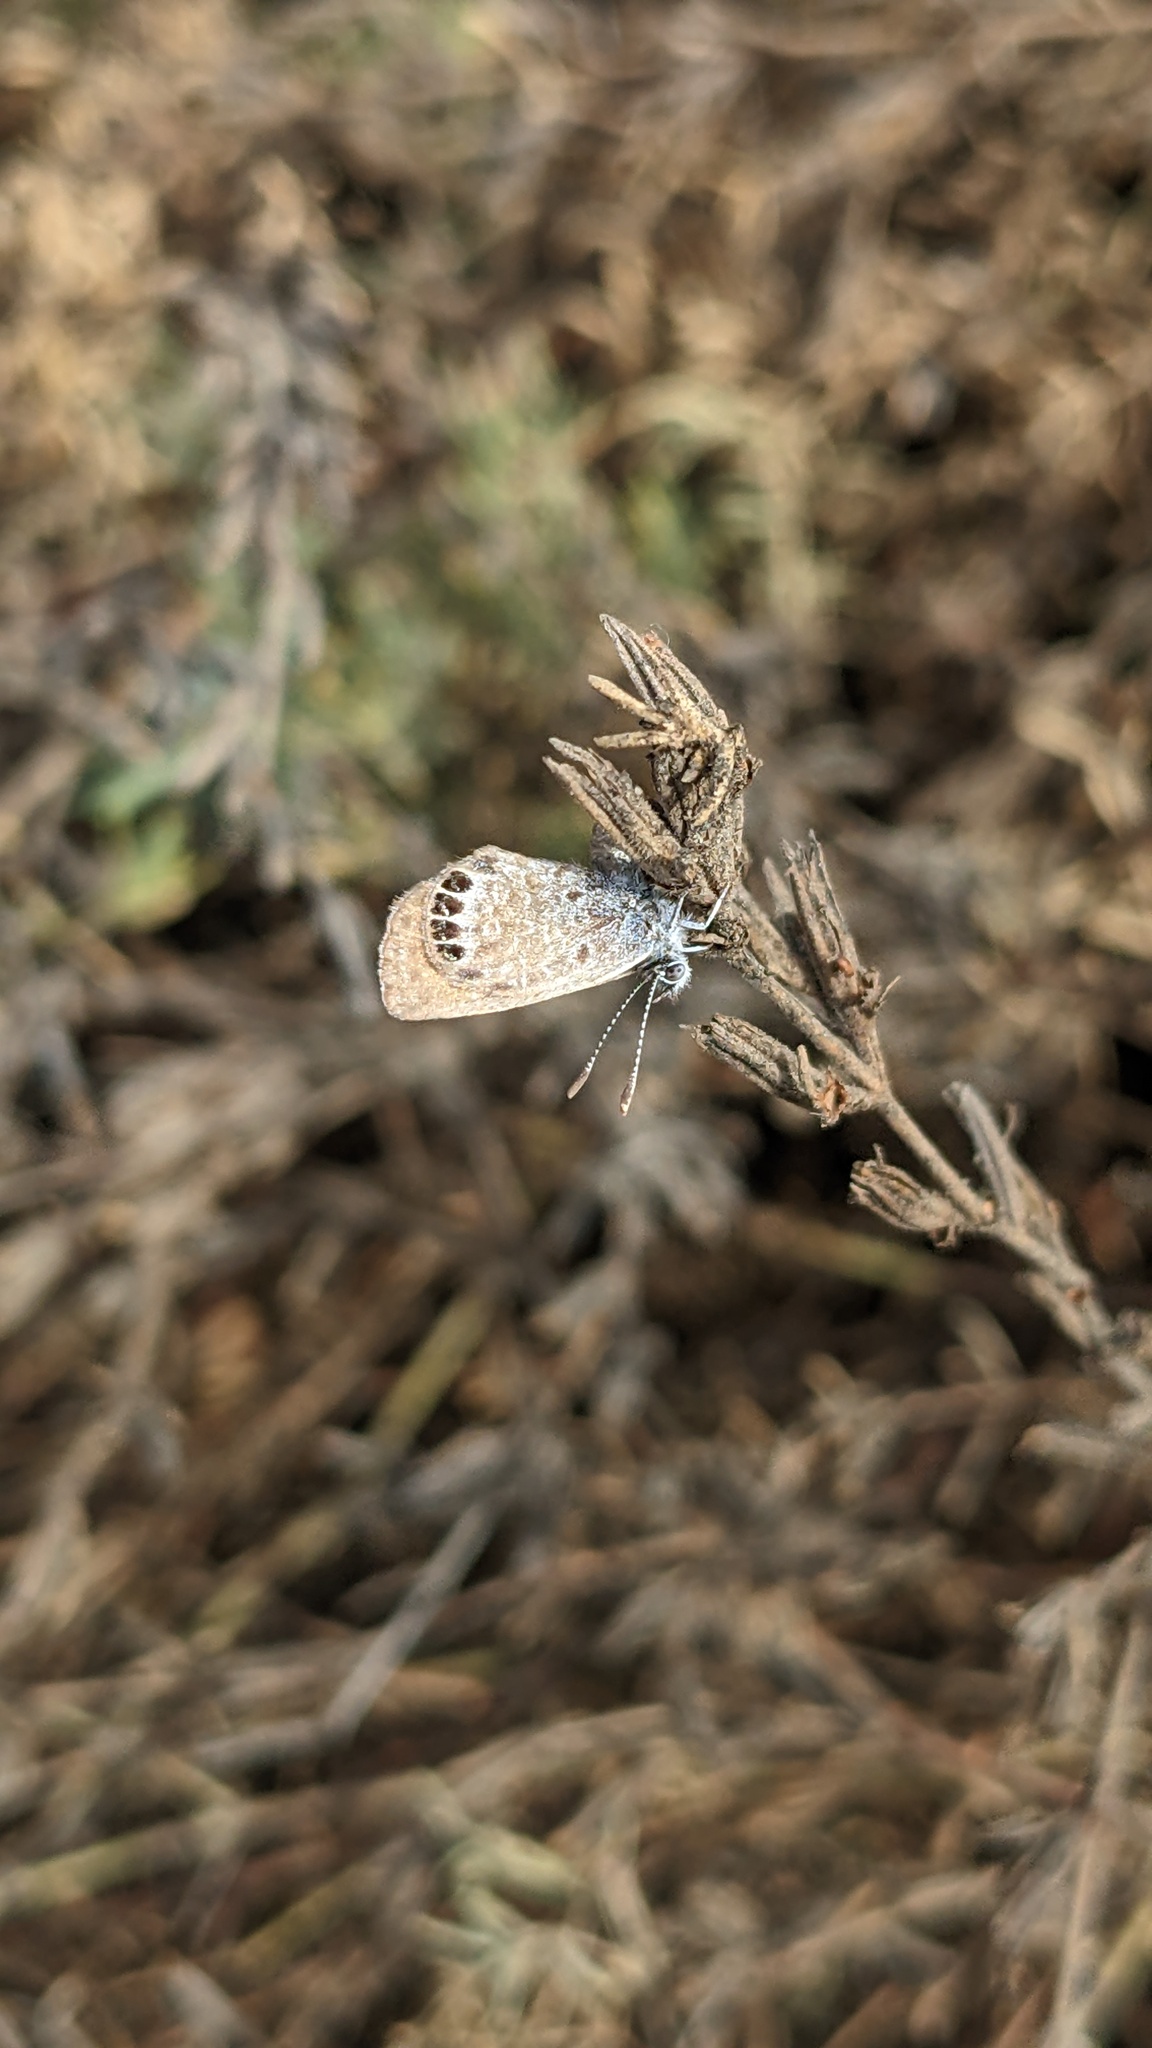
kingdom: Animalia
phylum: Arthropoda
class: Insecta
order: Lepidoptera
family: Lycaenidae
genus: Brephidium
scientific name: Brephidium exilis
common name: Pygmy blue
